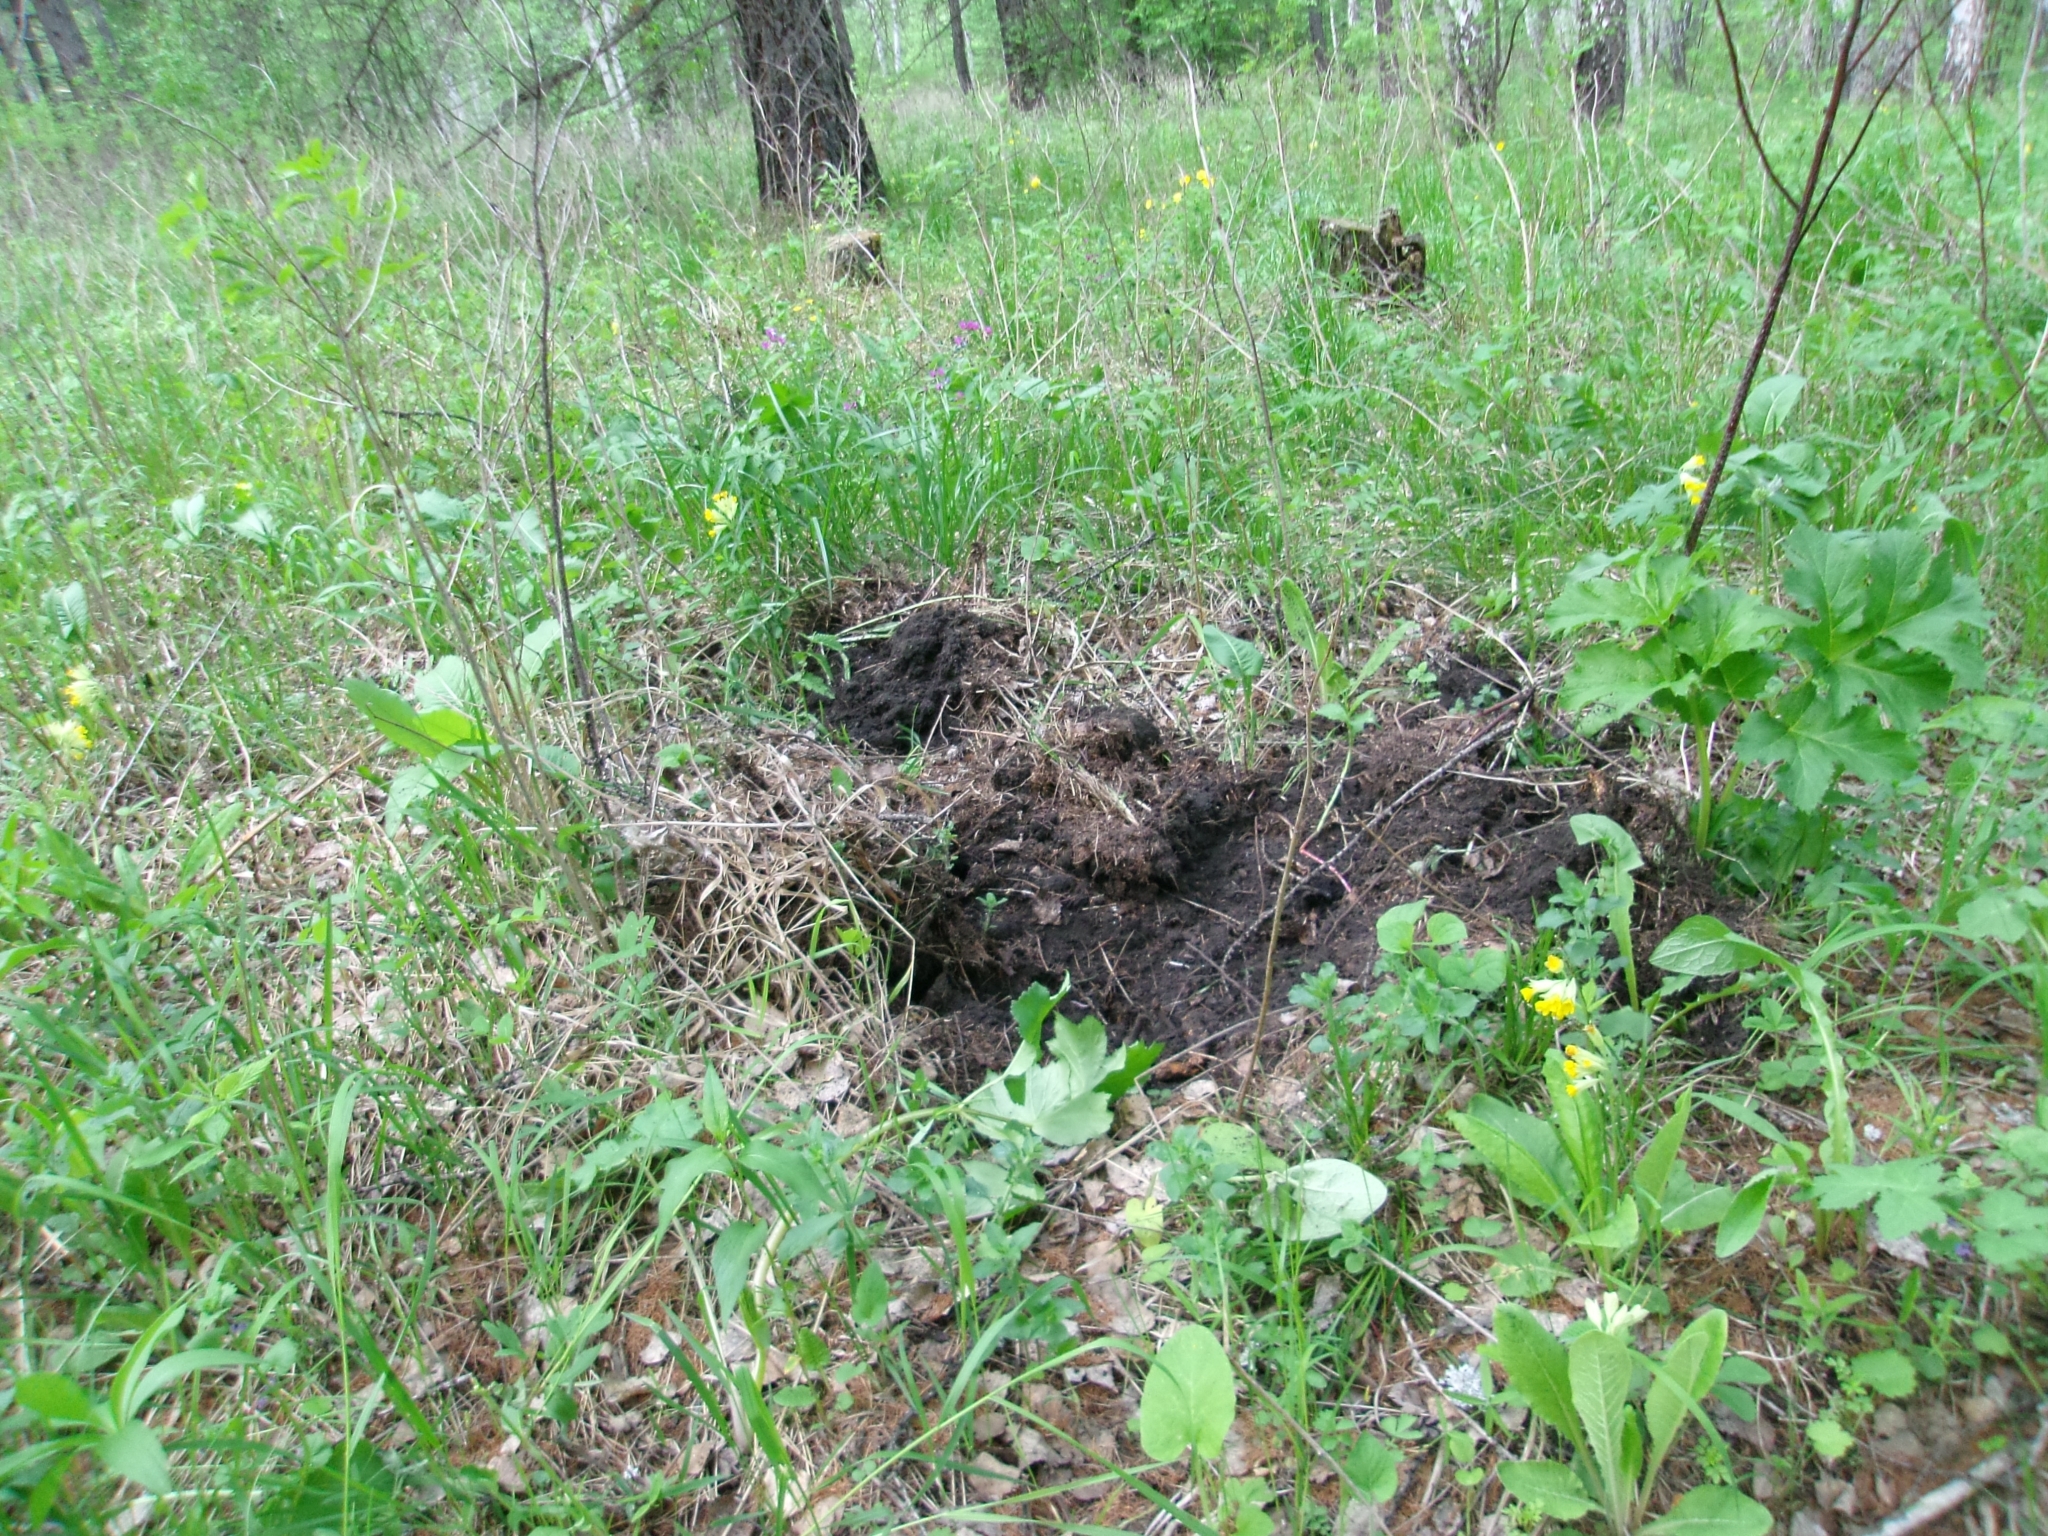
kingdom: Animalia
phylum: Chordata
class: Mammalia
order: Artiodactyla
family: Suidae
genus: Sus
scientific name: Sus scrofa
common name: Wild boar
